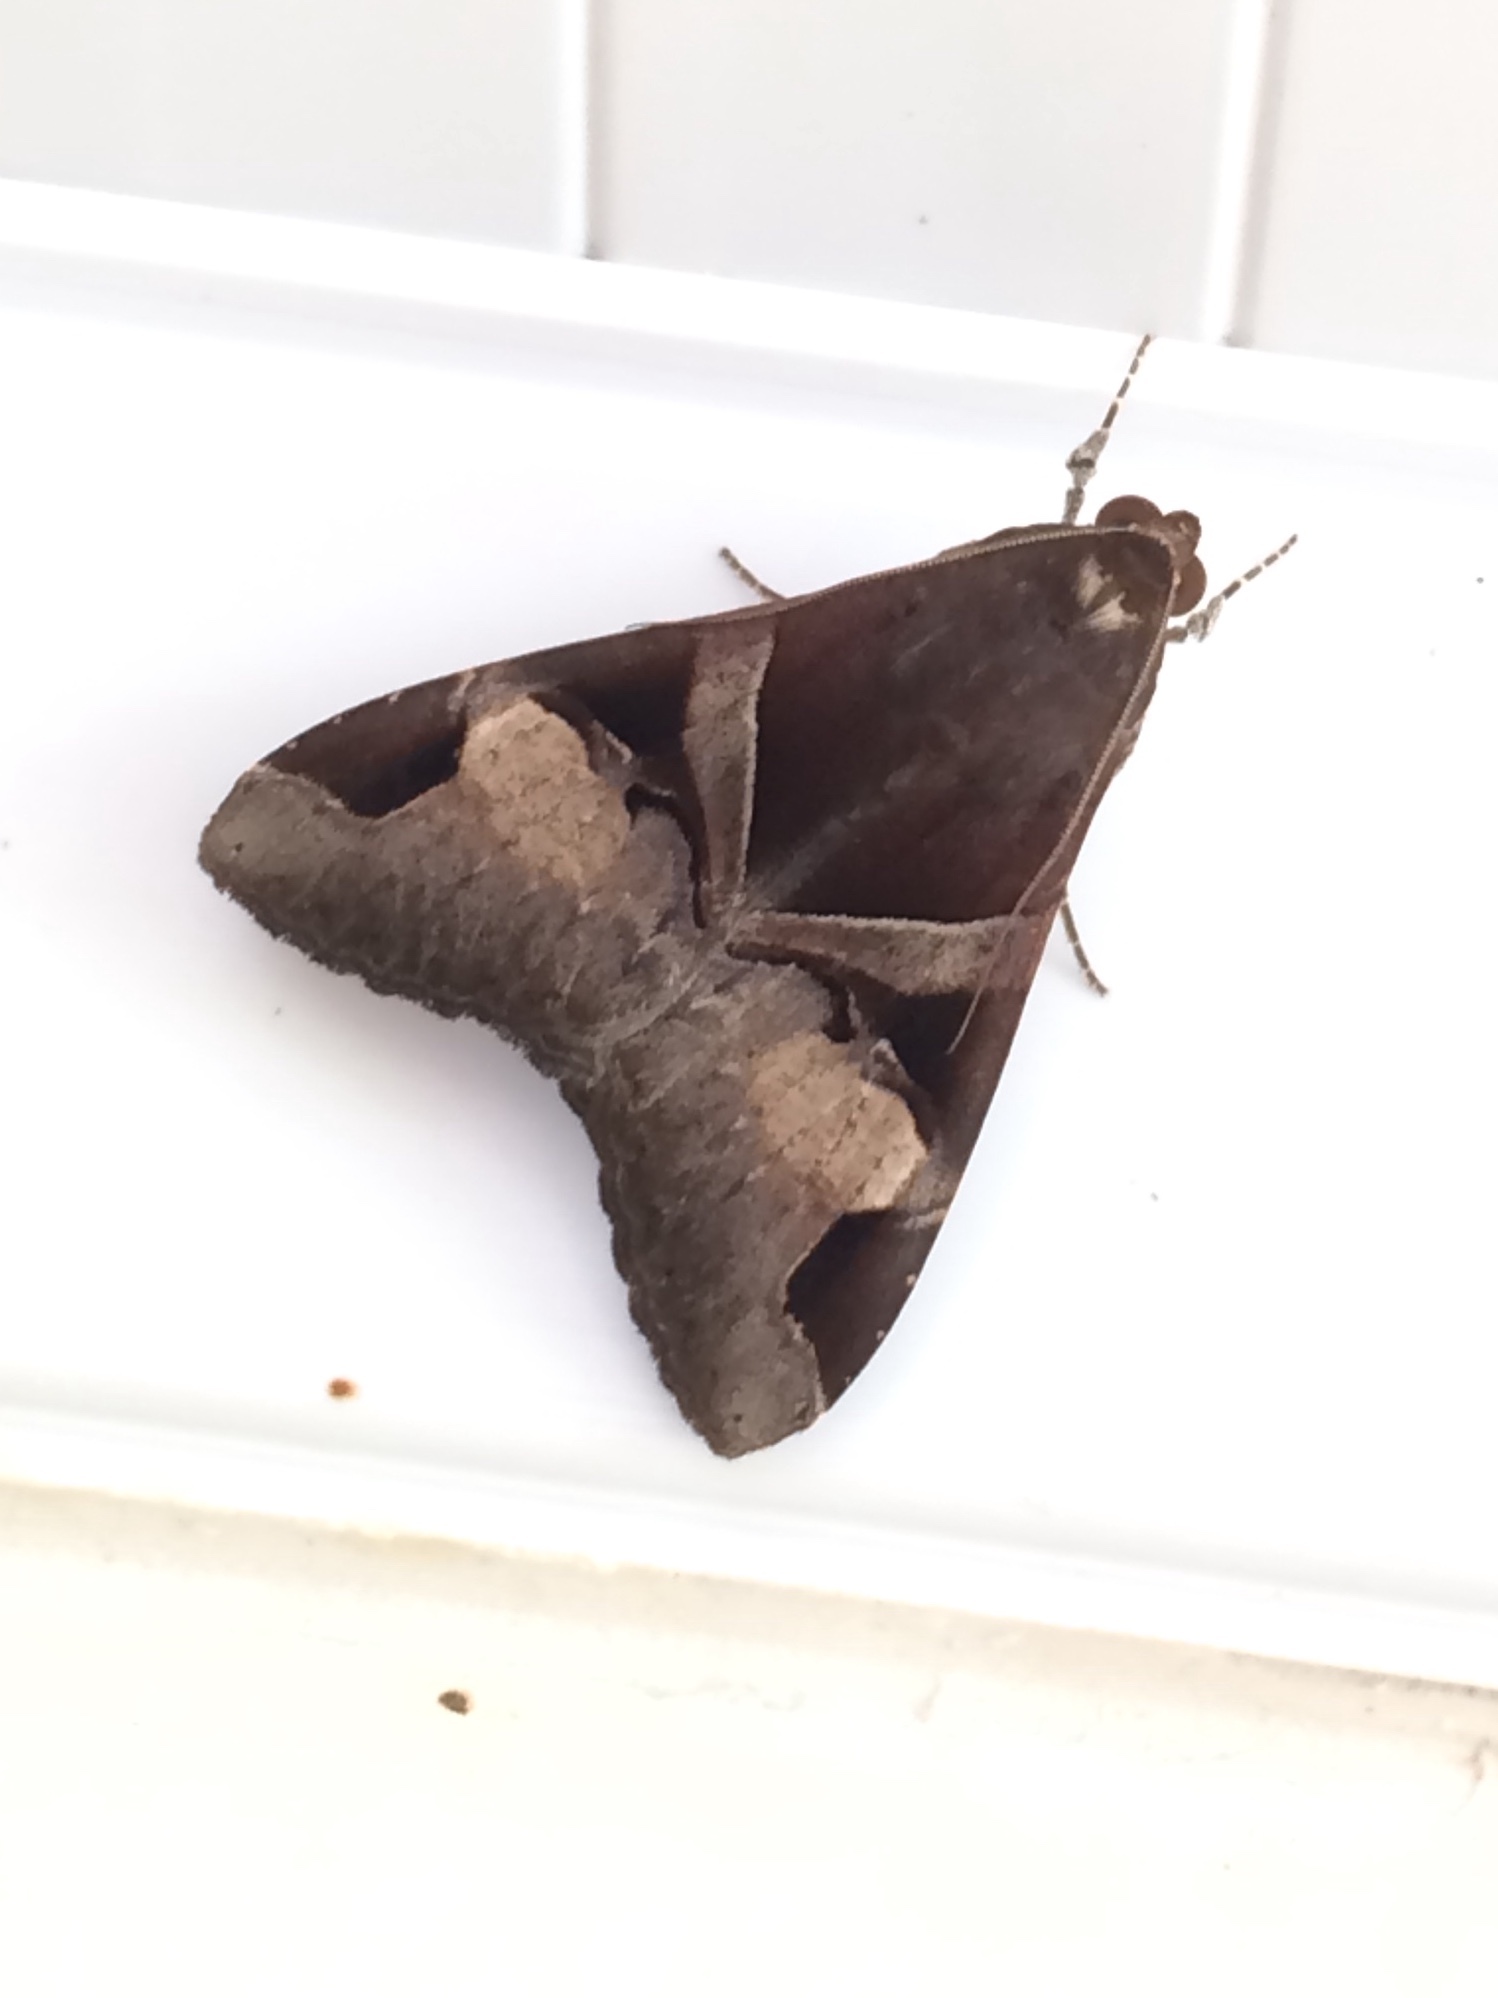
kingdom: Animalia
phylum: Arthropoda
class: Insecta
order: Lepidoptera
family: Erebidae
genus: Melipotis
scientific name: Melipotis fasciolaris
